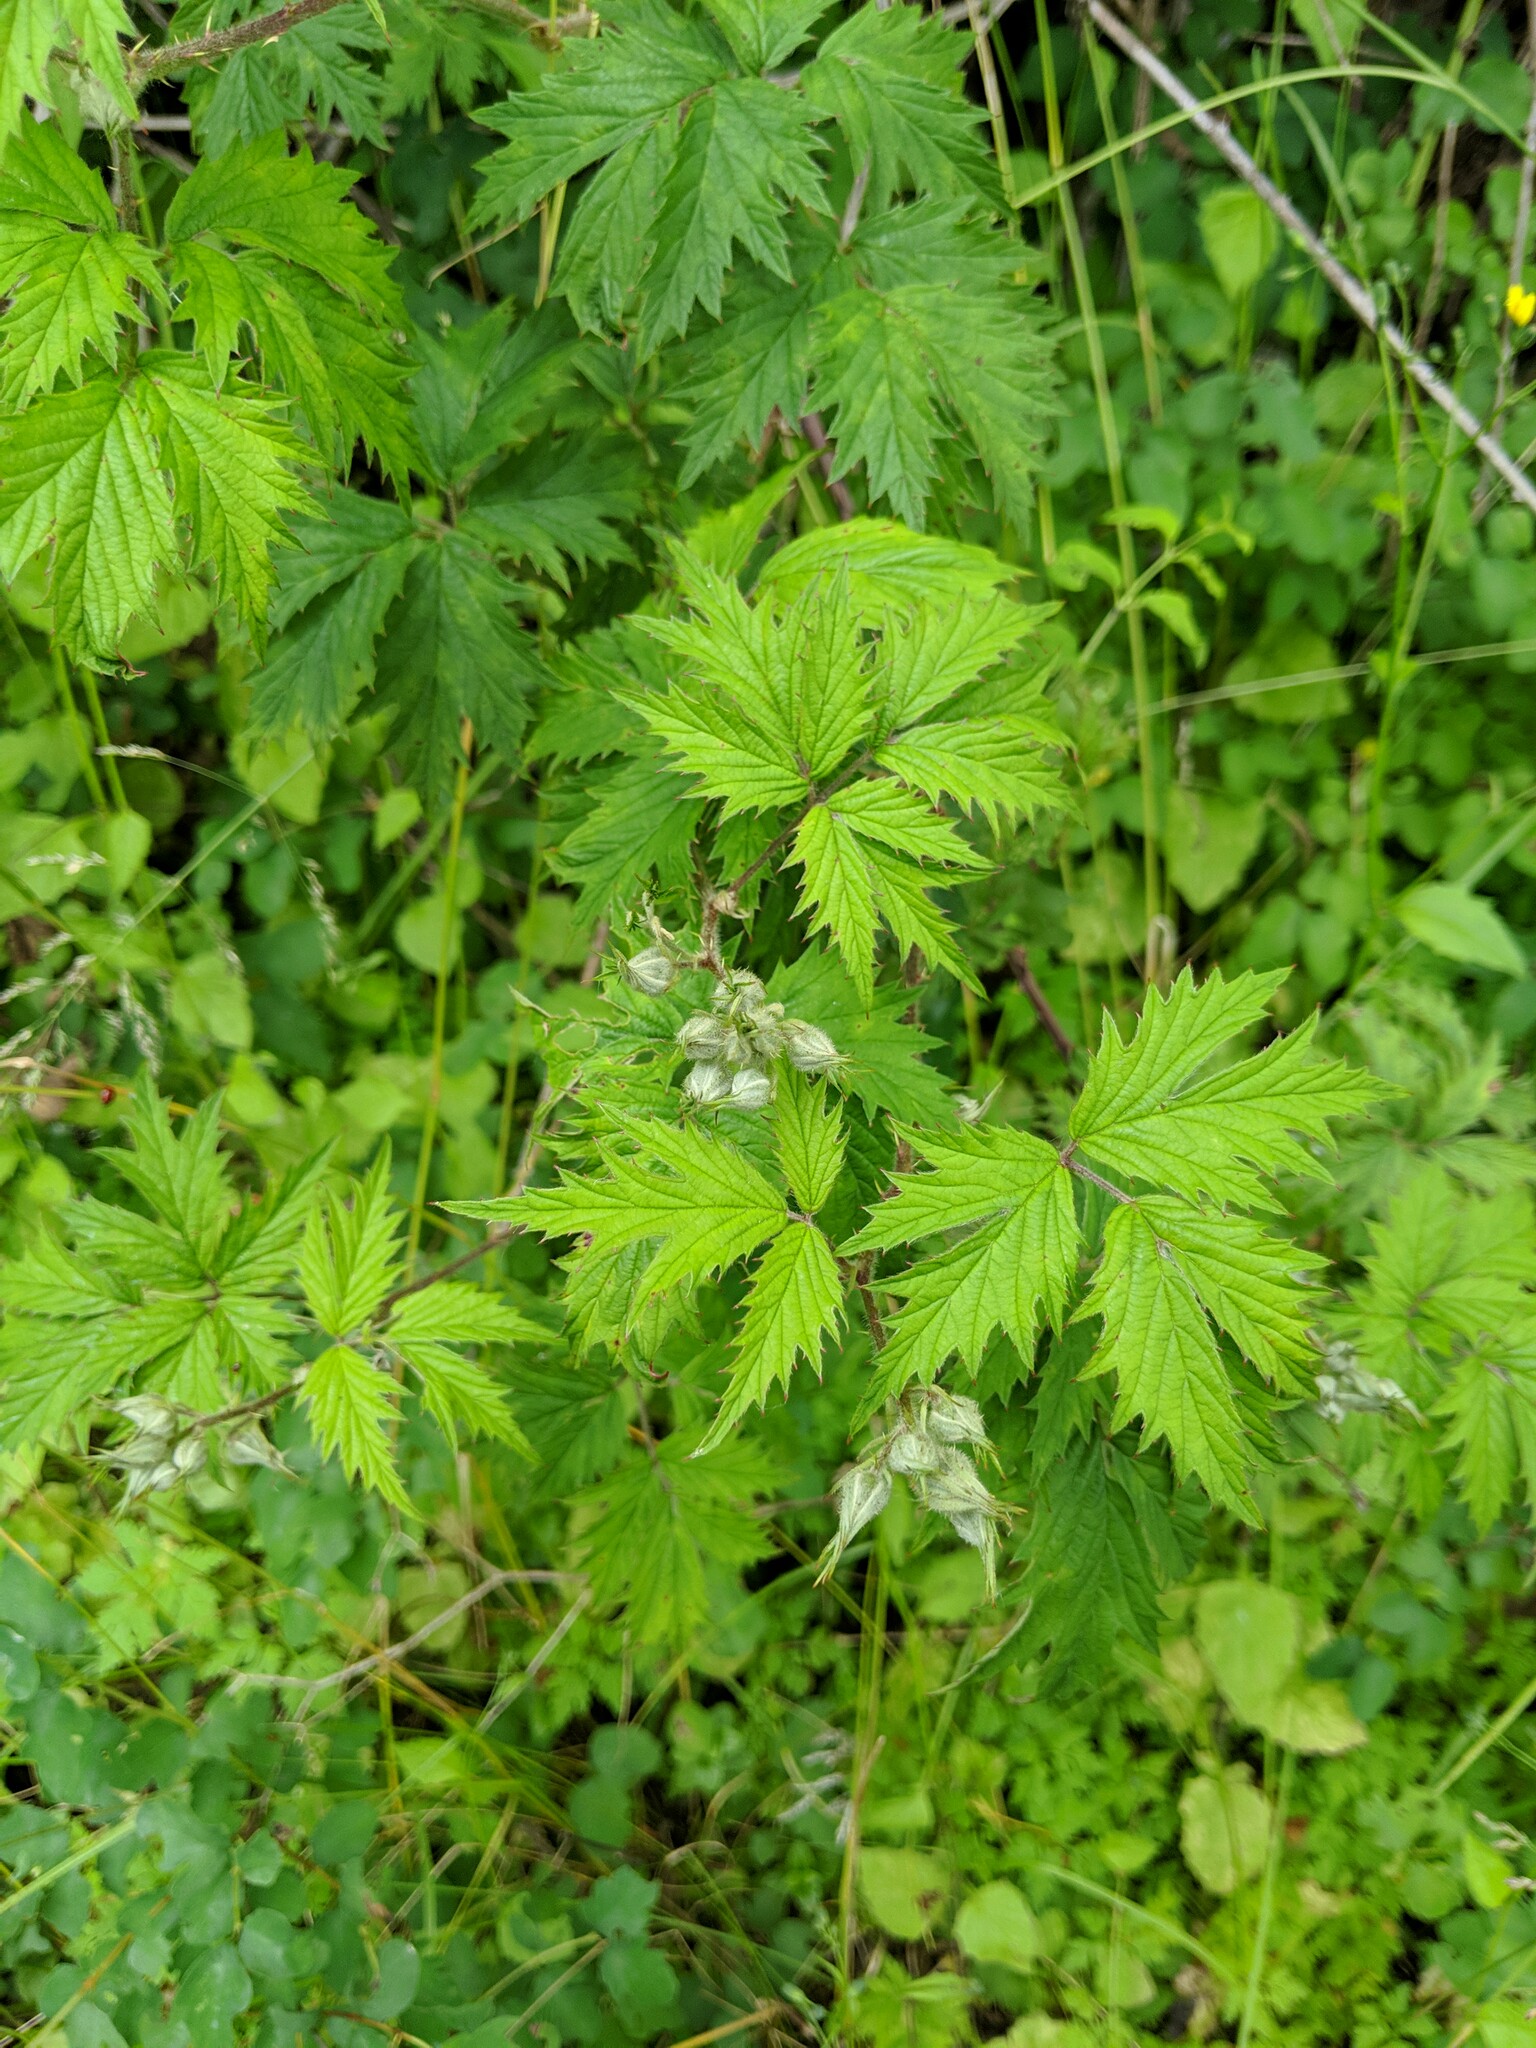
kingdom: Plantae
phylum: Tracheophyta
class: Magnoliopsida
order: Rosales
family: Rosaceae
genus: Rubus
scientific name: Rubus laciniatus
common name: Evergreen blackberry
